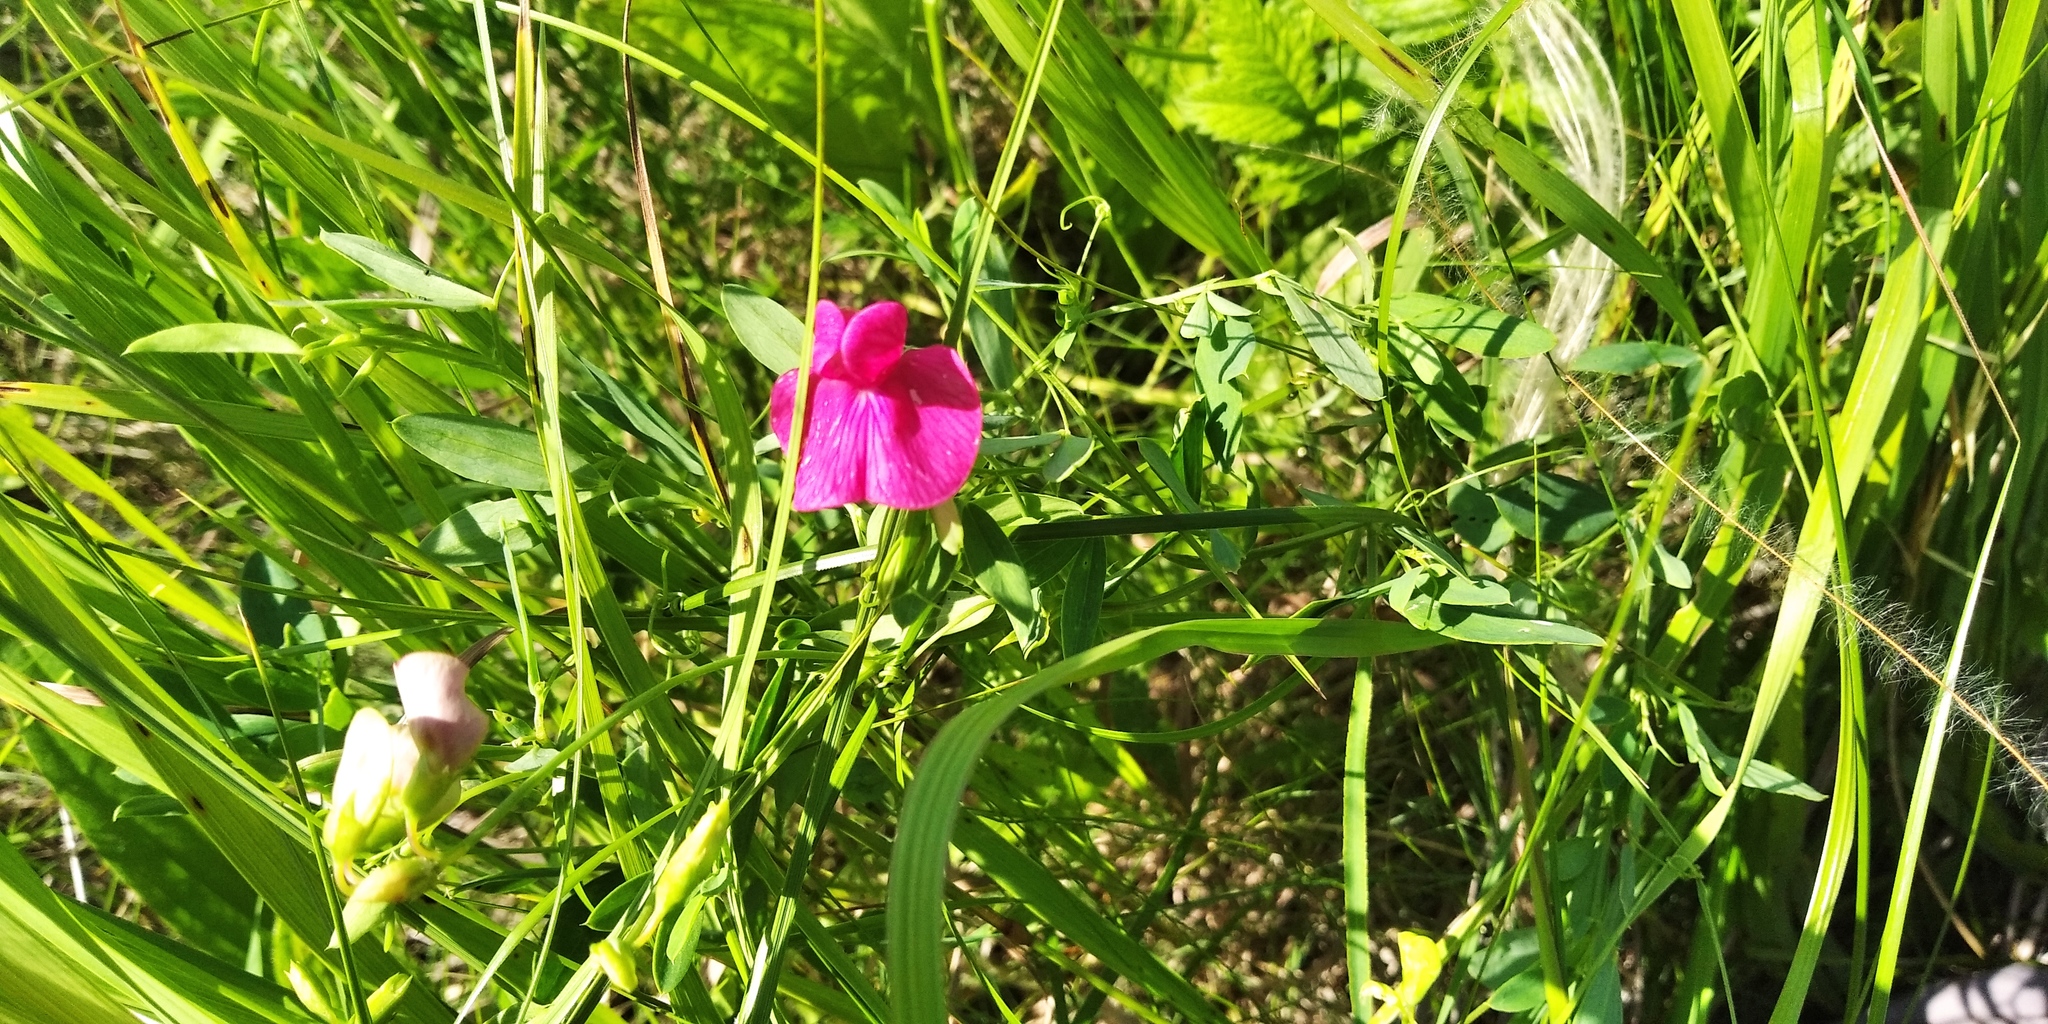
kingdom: Plantae
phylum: Tracheophyta
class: Magnoliopsida
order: Fabales
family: Fabaceae
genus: Lathyrus
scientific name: Lathyrus tuberosus
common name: Tuberous pea
